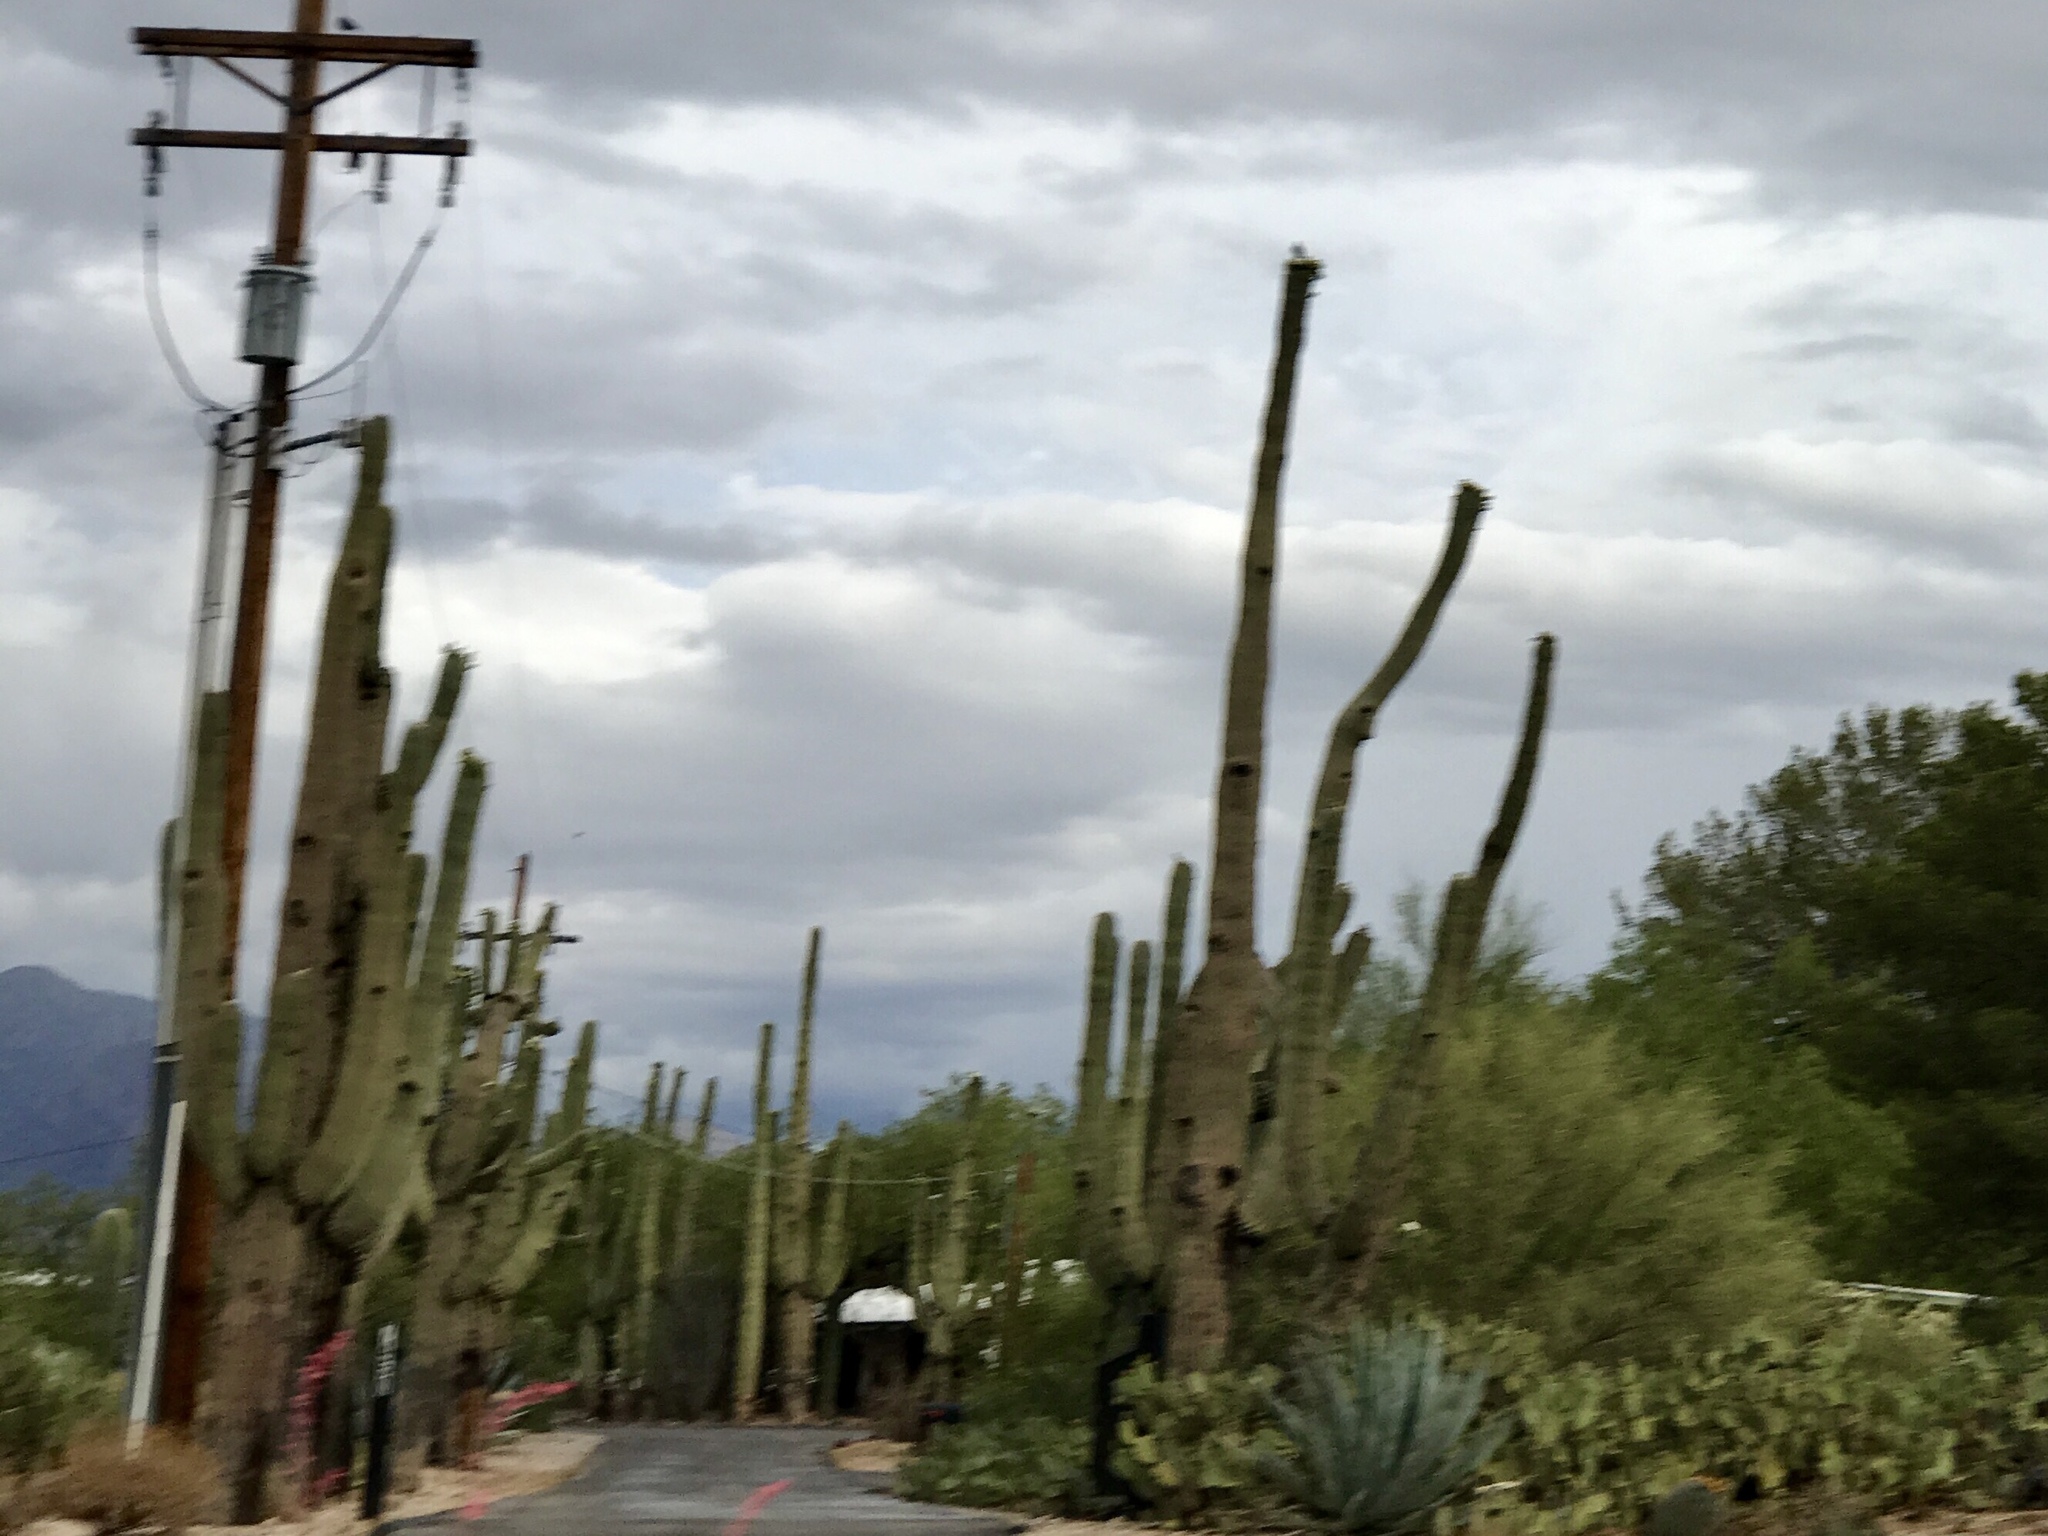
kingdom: Plantae
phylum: Tracheophyta
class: Magnoliopsida
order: Caryophyllales
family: Cactaceae
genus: Carnegiea
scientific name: Carnegiea gigantea
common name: Saguaro
